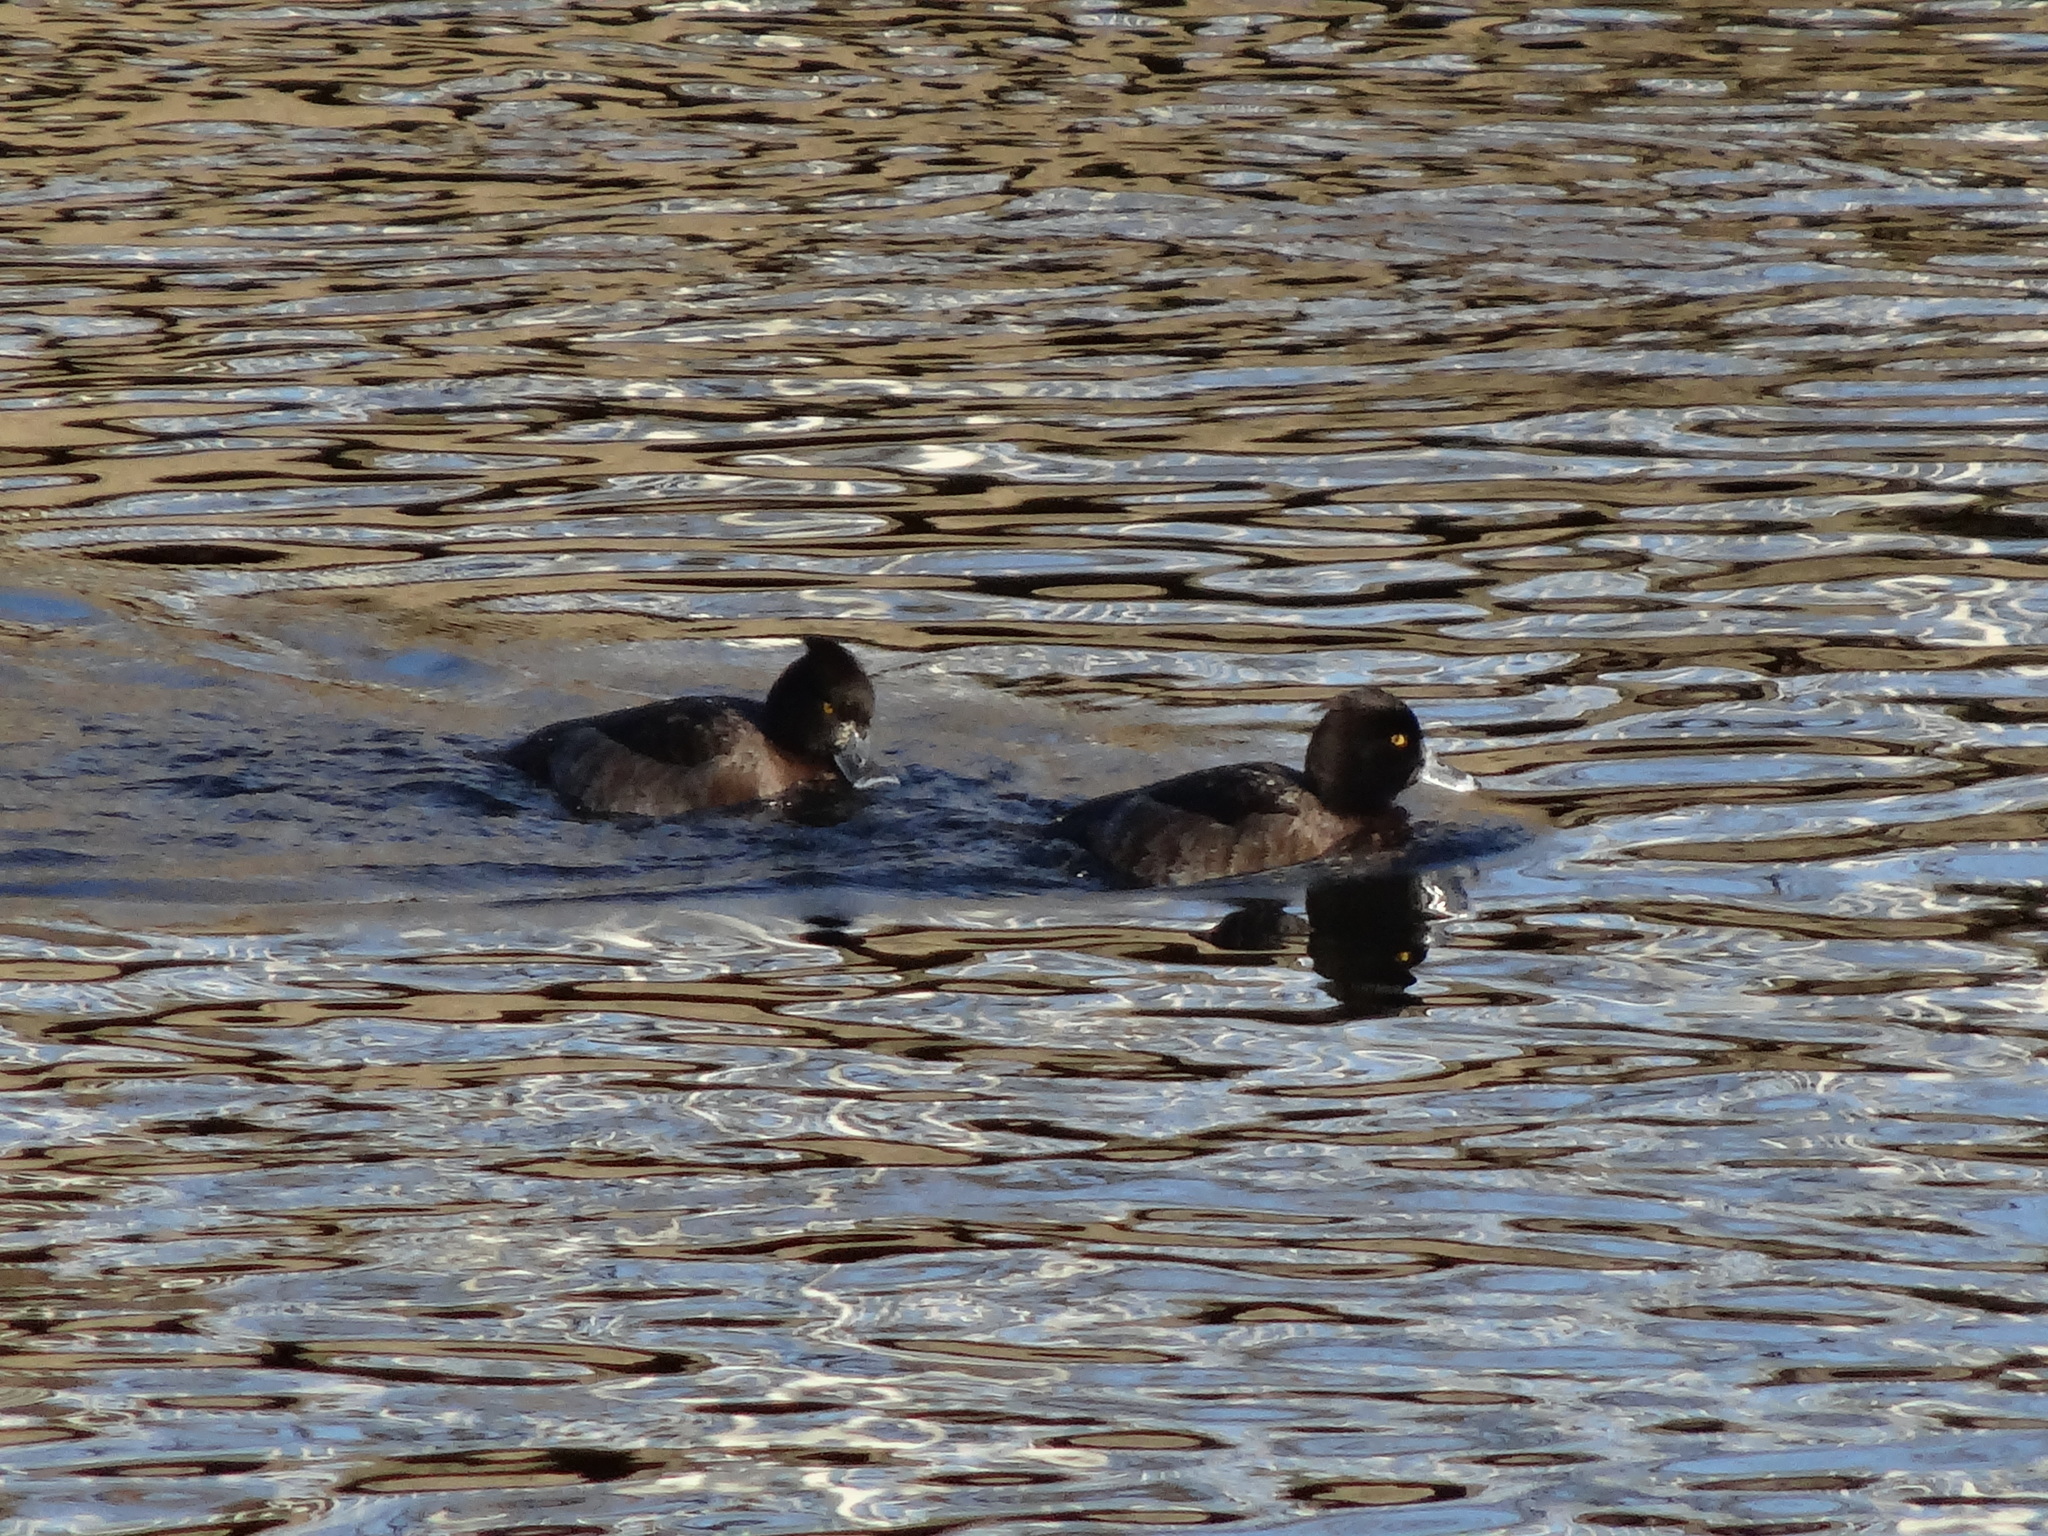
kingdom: Animalia
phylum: Chordata
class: Aves
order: Anseriformes
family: Anatidae
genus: Aythya
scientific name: Aythya fuligula
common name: Tufted duck
